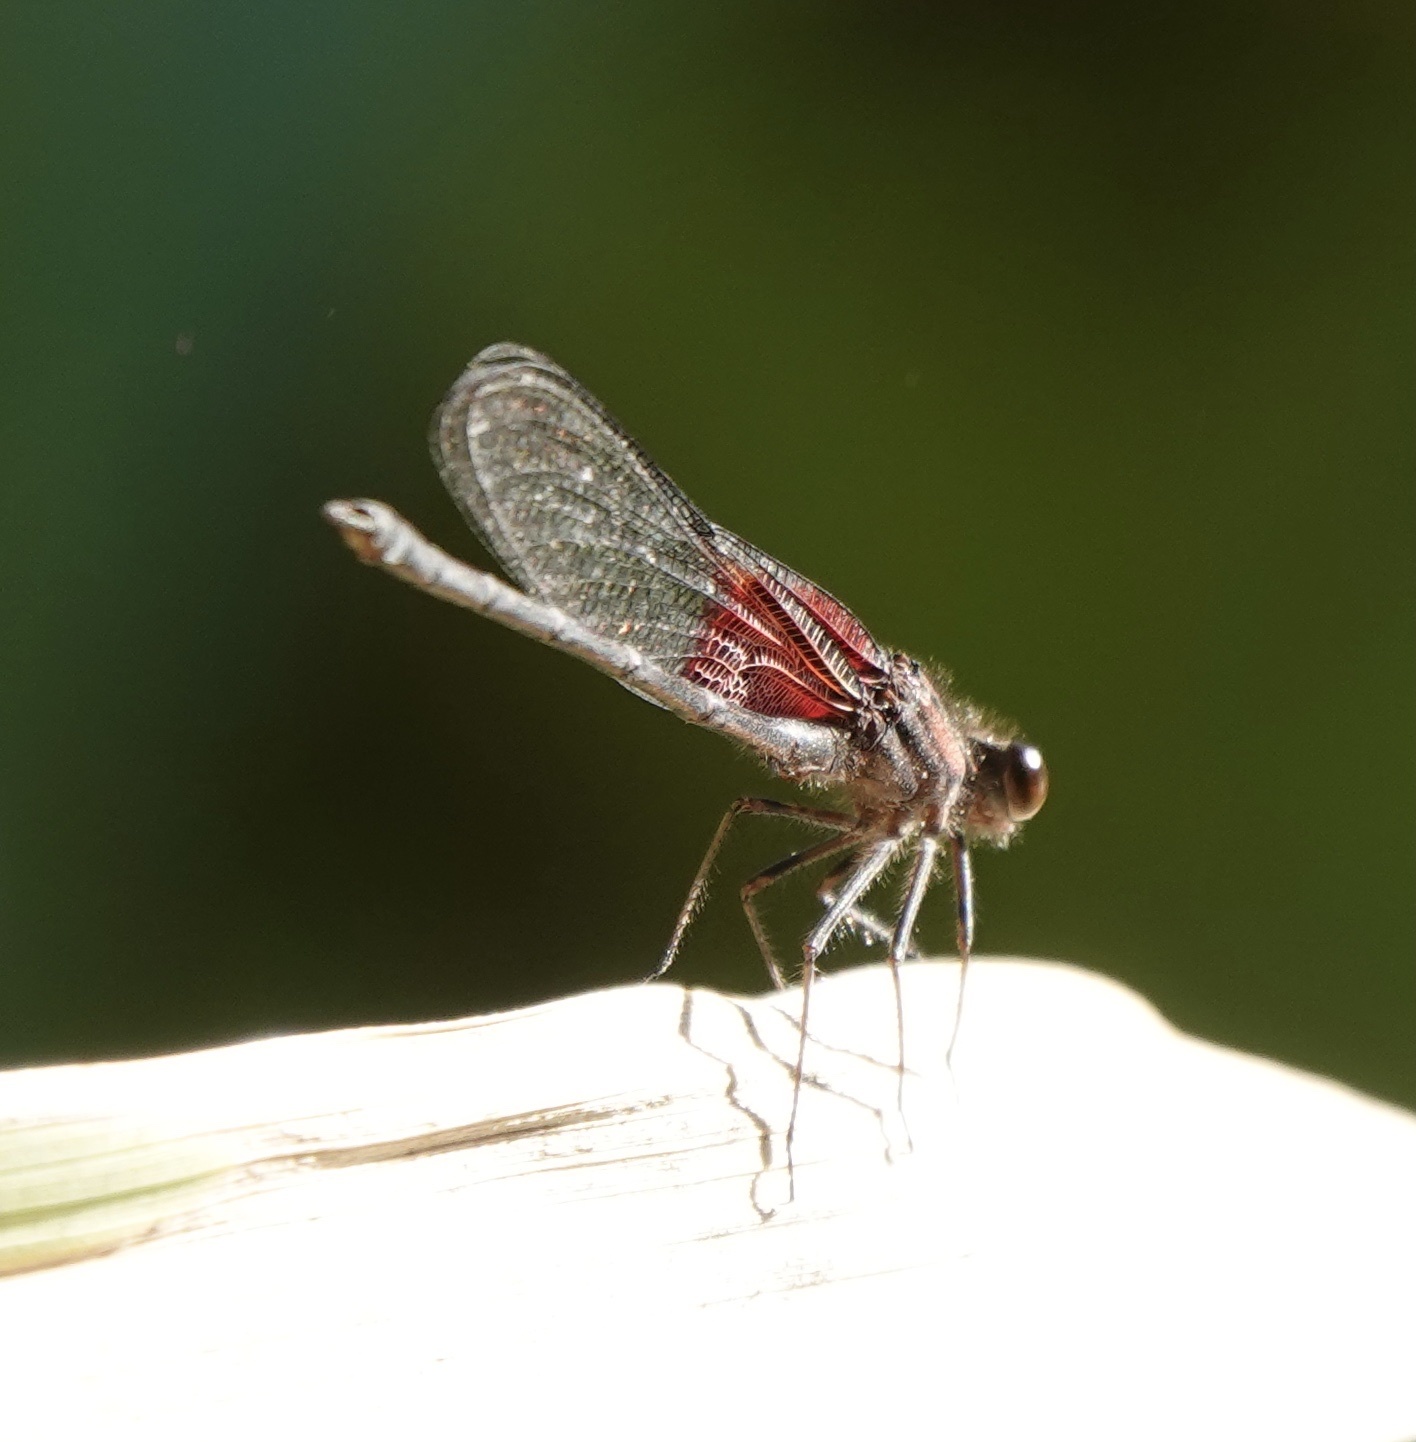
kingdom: Animalia
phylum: Arthropoda
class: Insecta
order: Odonata
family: Calopterygidae
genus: Hetaerina
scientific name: Hetaerina americana
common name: American rubyspot
